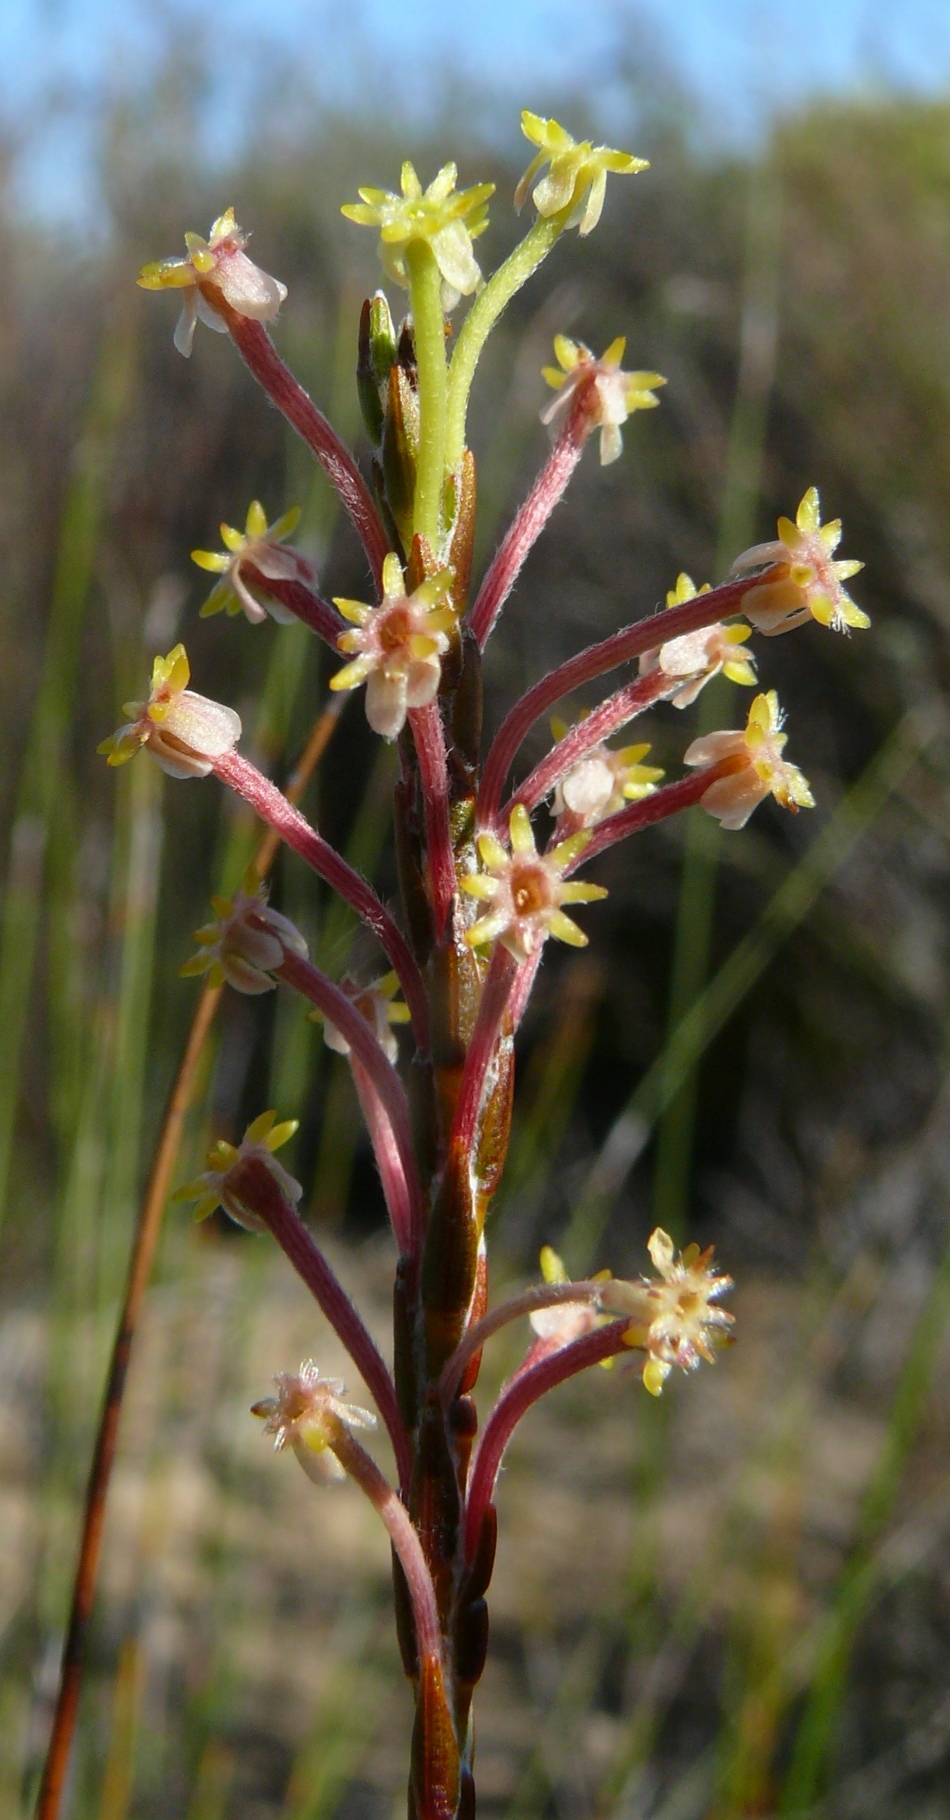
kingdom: Plantae
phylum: Tracheophyta
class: Magnoliopsida
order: Malvales
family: Thymelaeaceae
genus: Struthiola
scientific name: Struthiola ciliata
